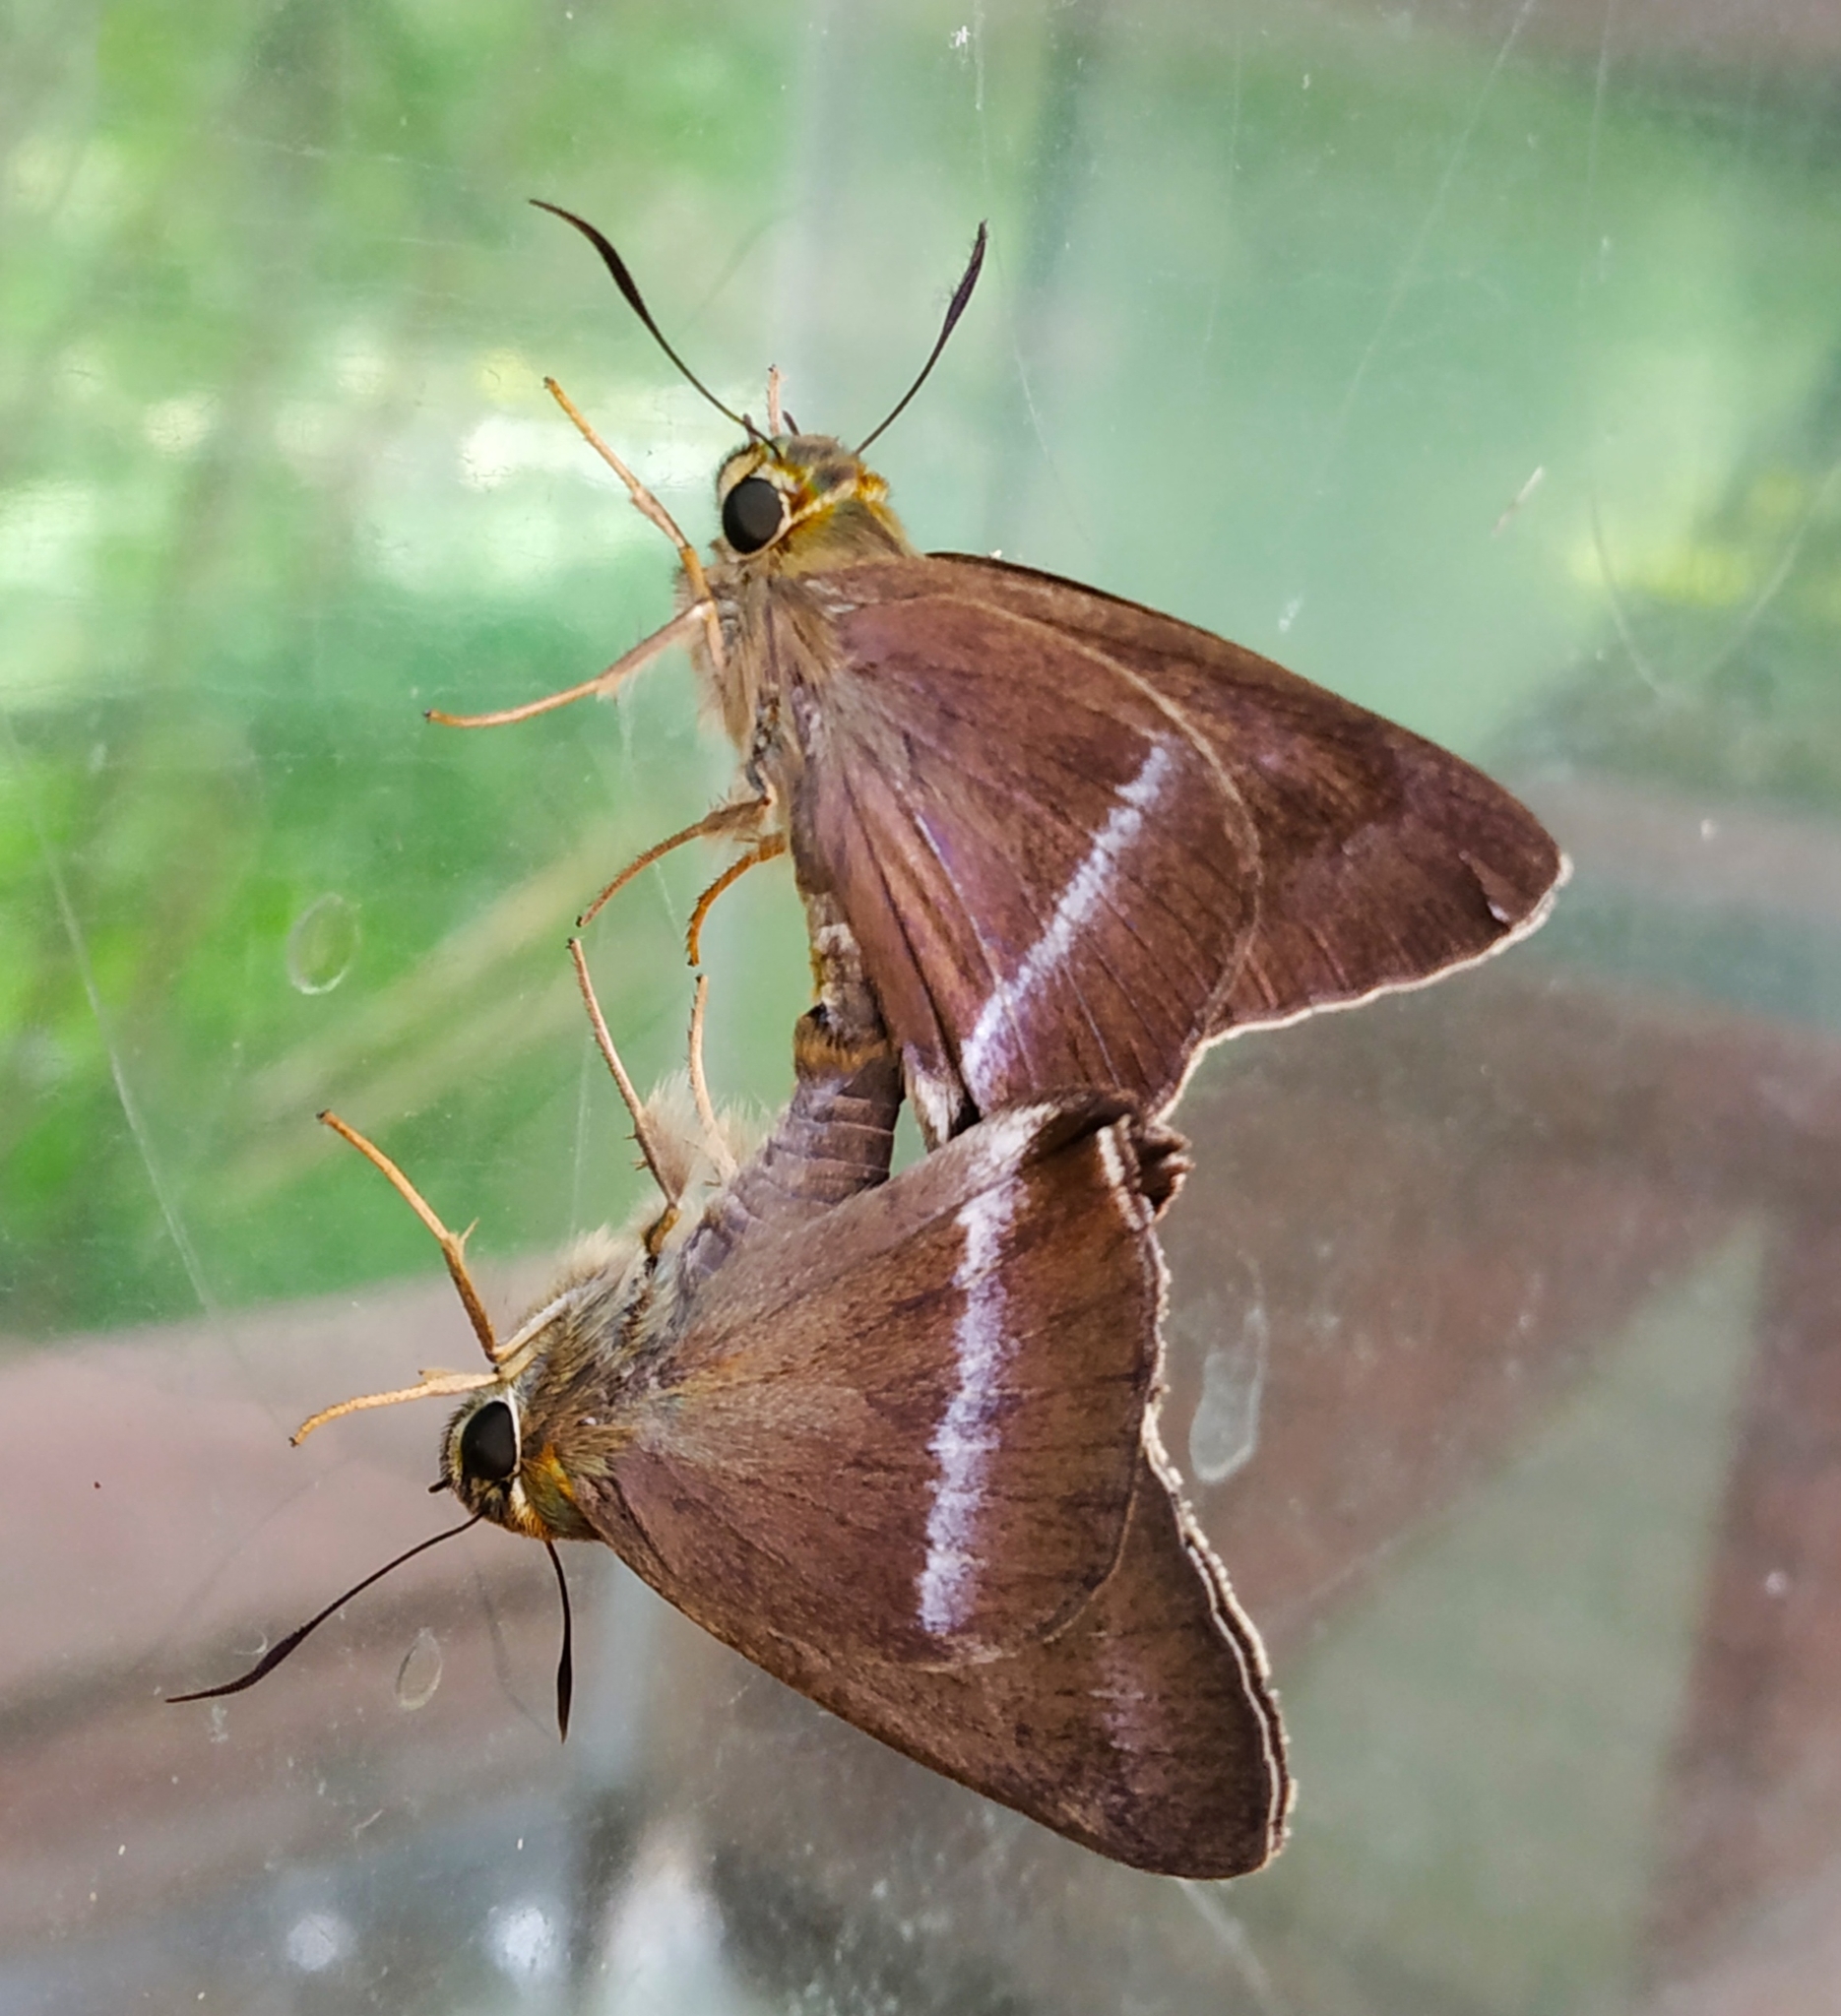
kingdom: Animalia
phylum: Arthropoda
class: Insecta
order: Lepidoptera
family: Hesperiidae
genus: Hasora
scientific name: Hasora chromus
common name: Common banded awl
